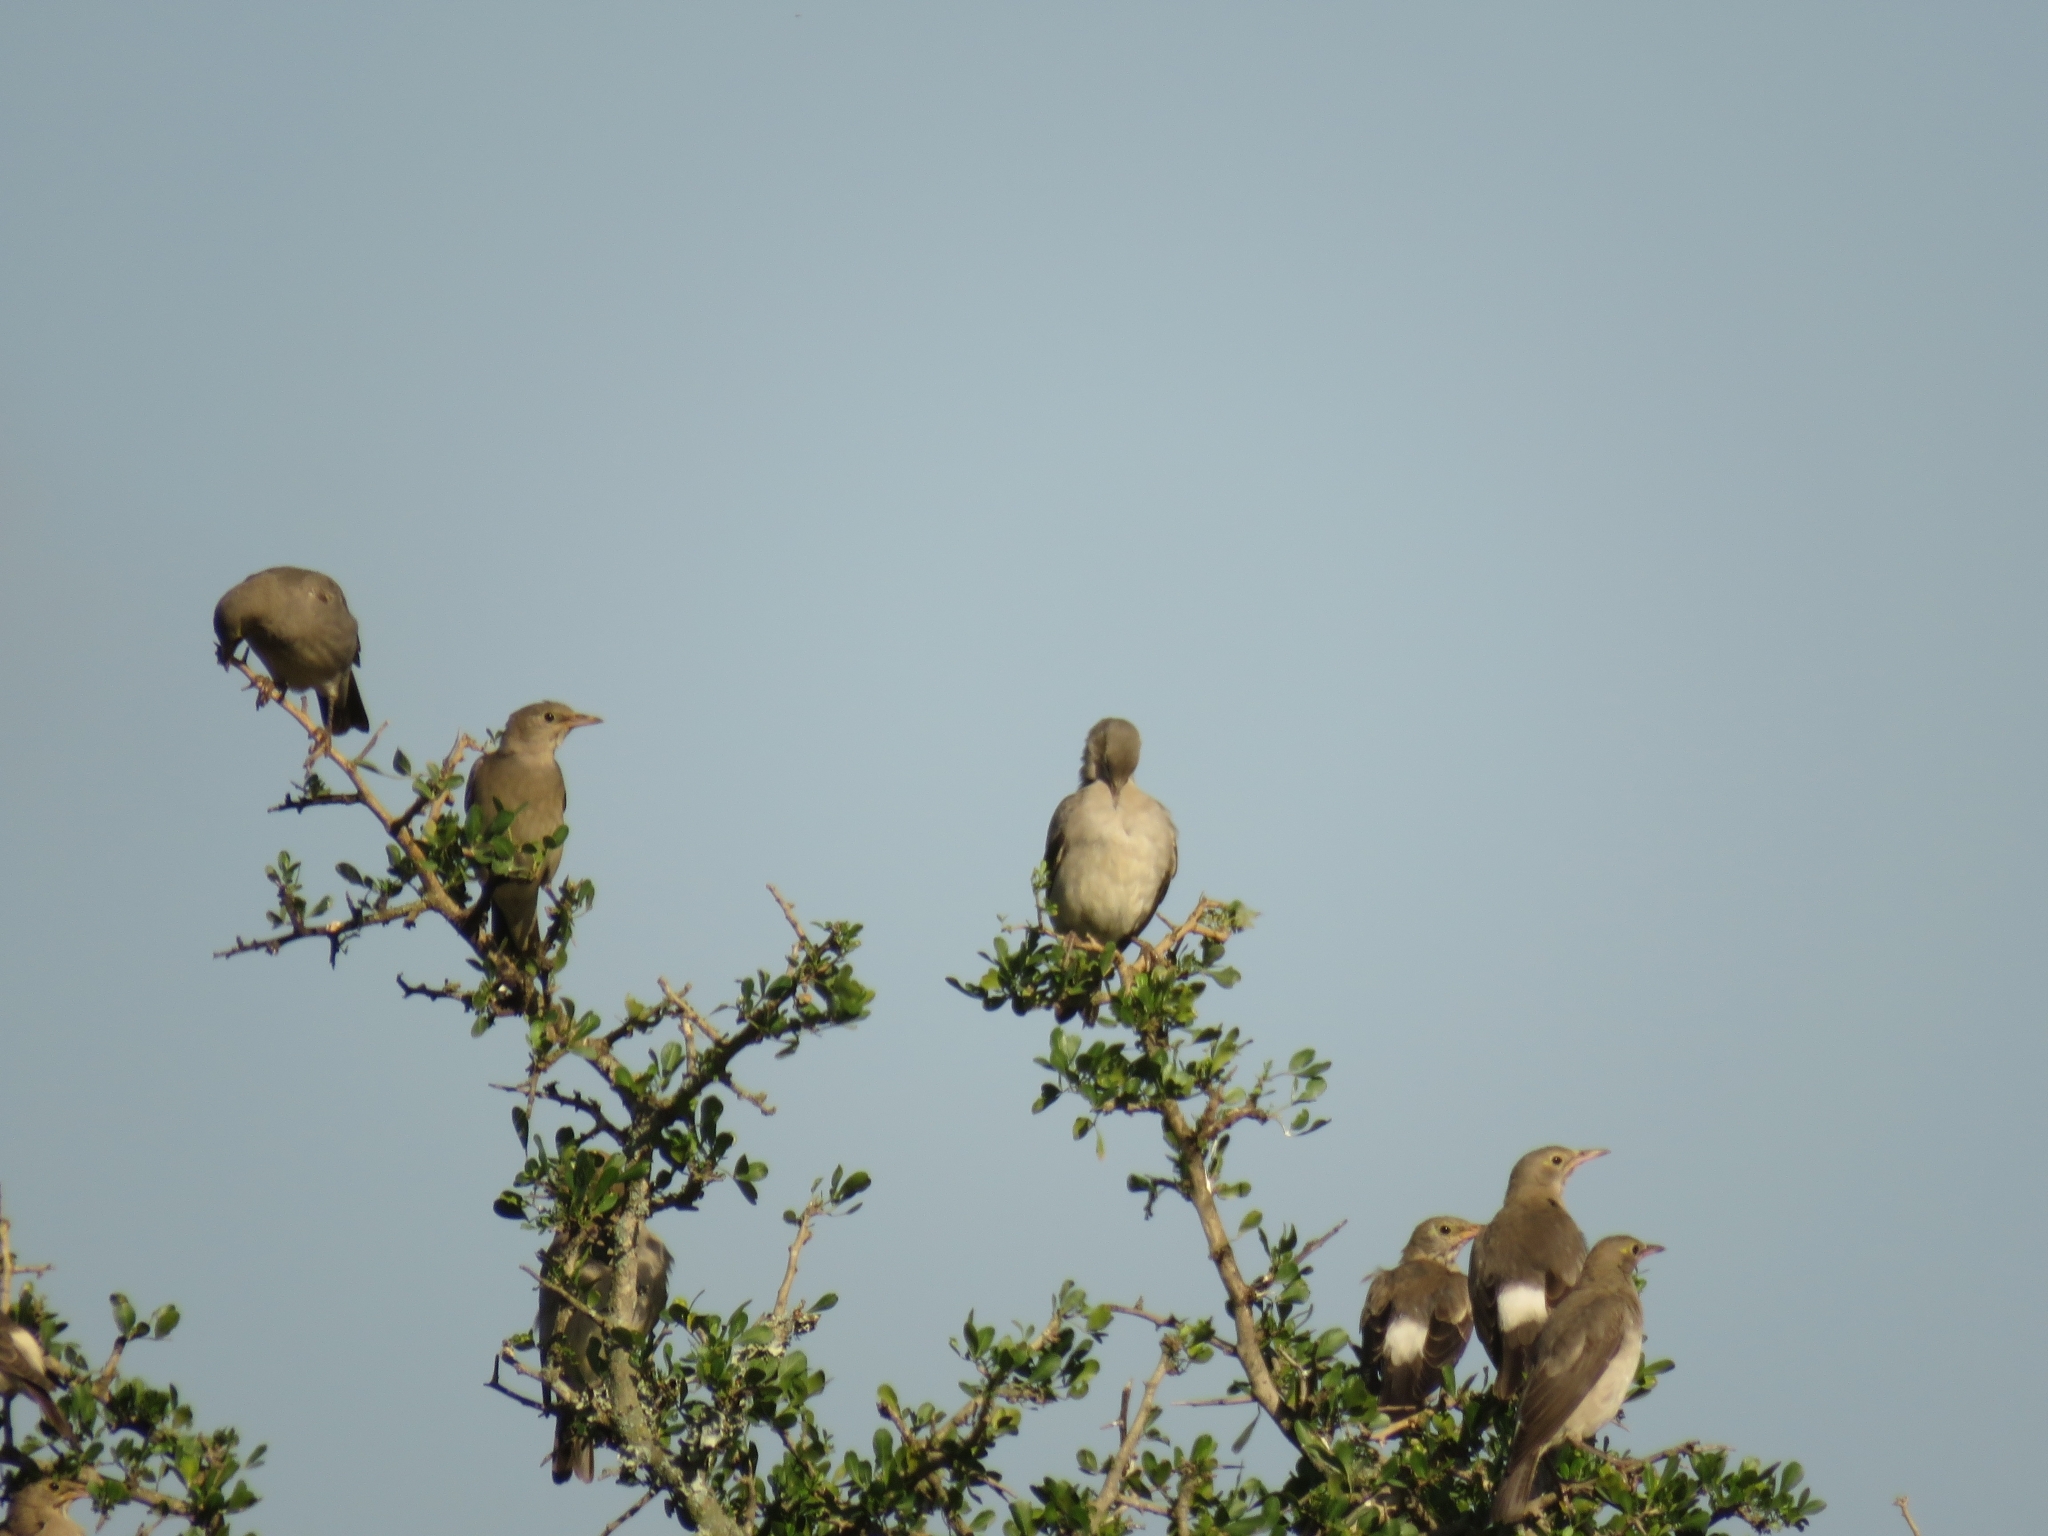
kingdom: Animalia
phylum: Chordata
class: Aves
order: Passeriformes
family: Sturnidae
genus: Creatophora
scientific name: Creatophora cinerea
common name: Wattled starling
